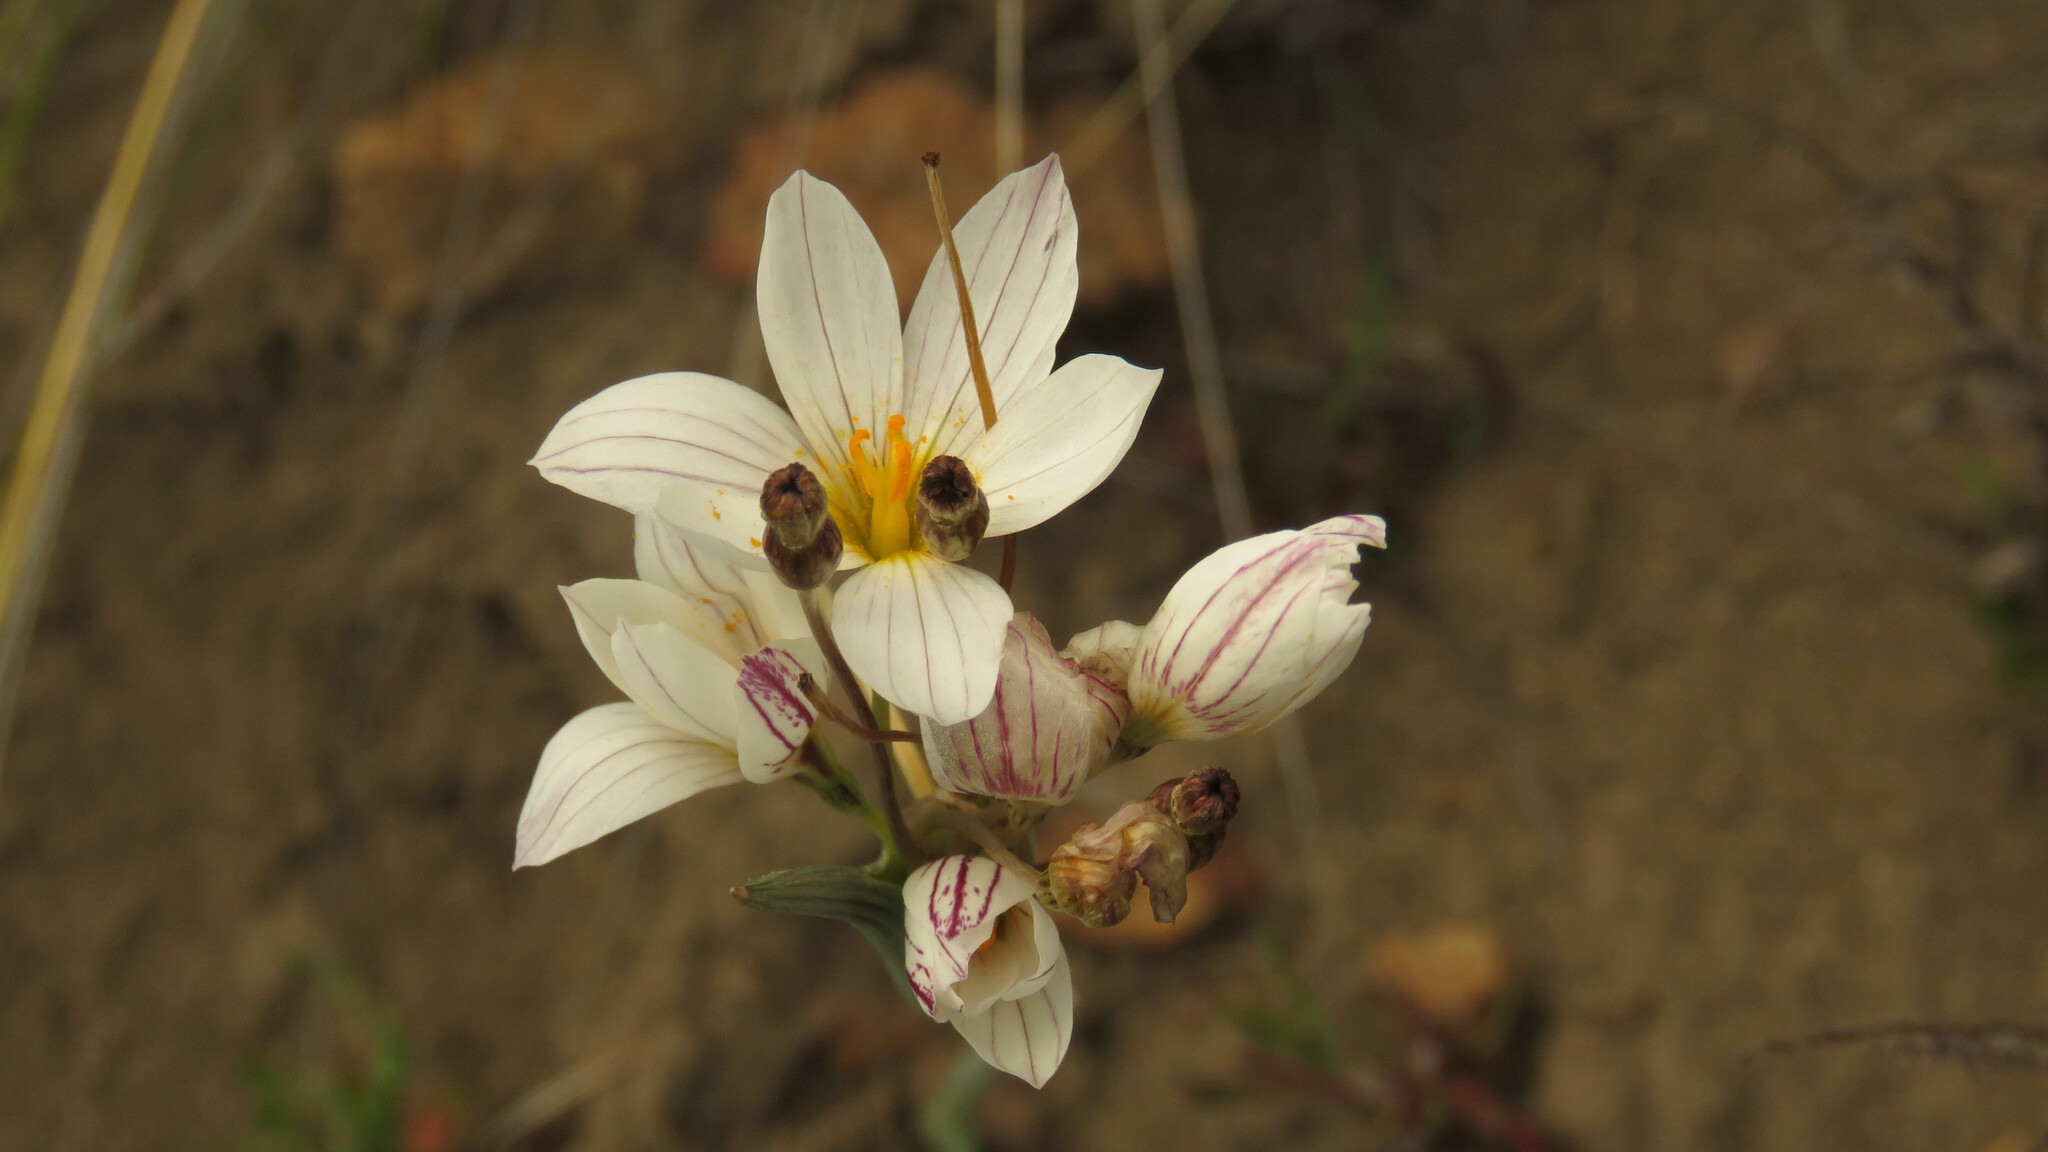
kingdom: Plantae
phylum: Tracheophyta
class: Liliopsida
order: Asparagales
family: Iridaceae
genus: Olsynium
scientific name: Olsynium junceum
